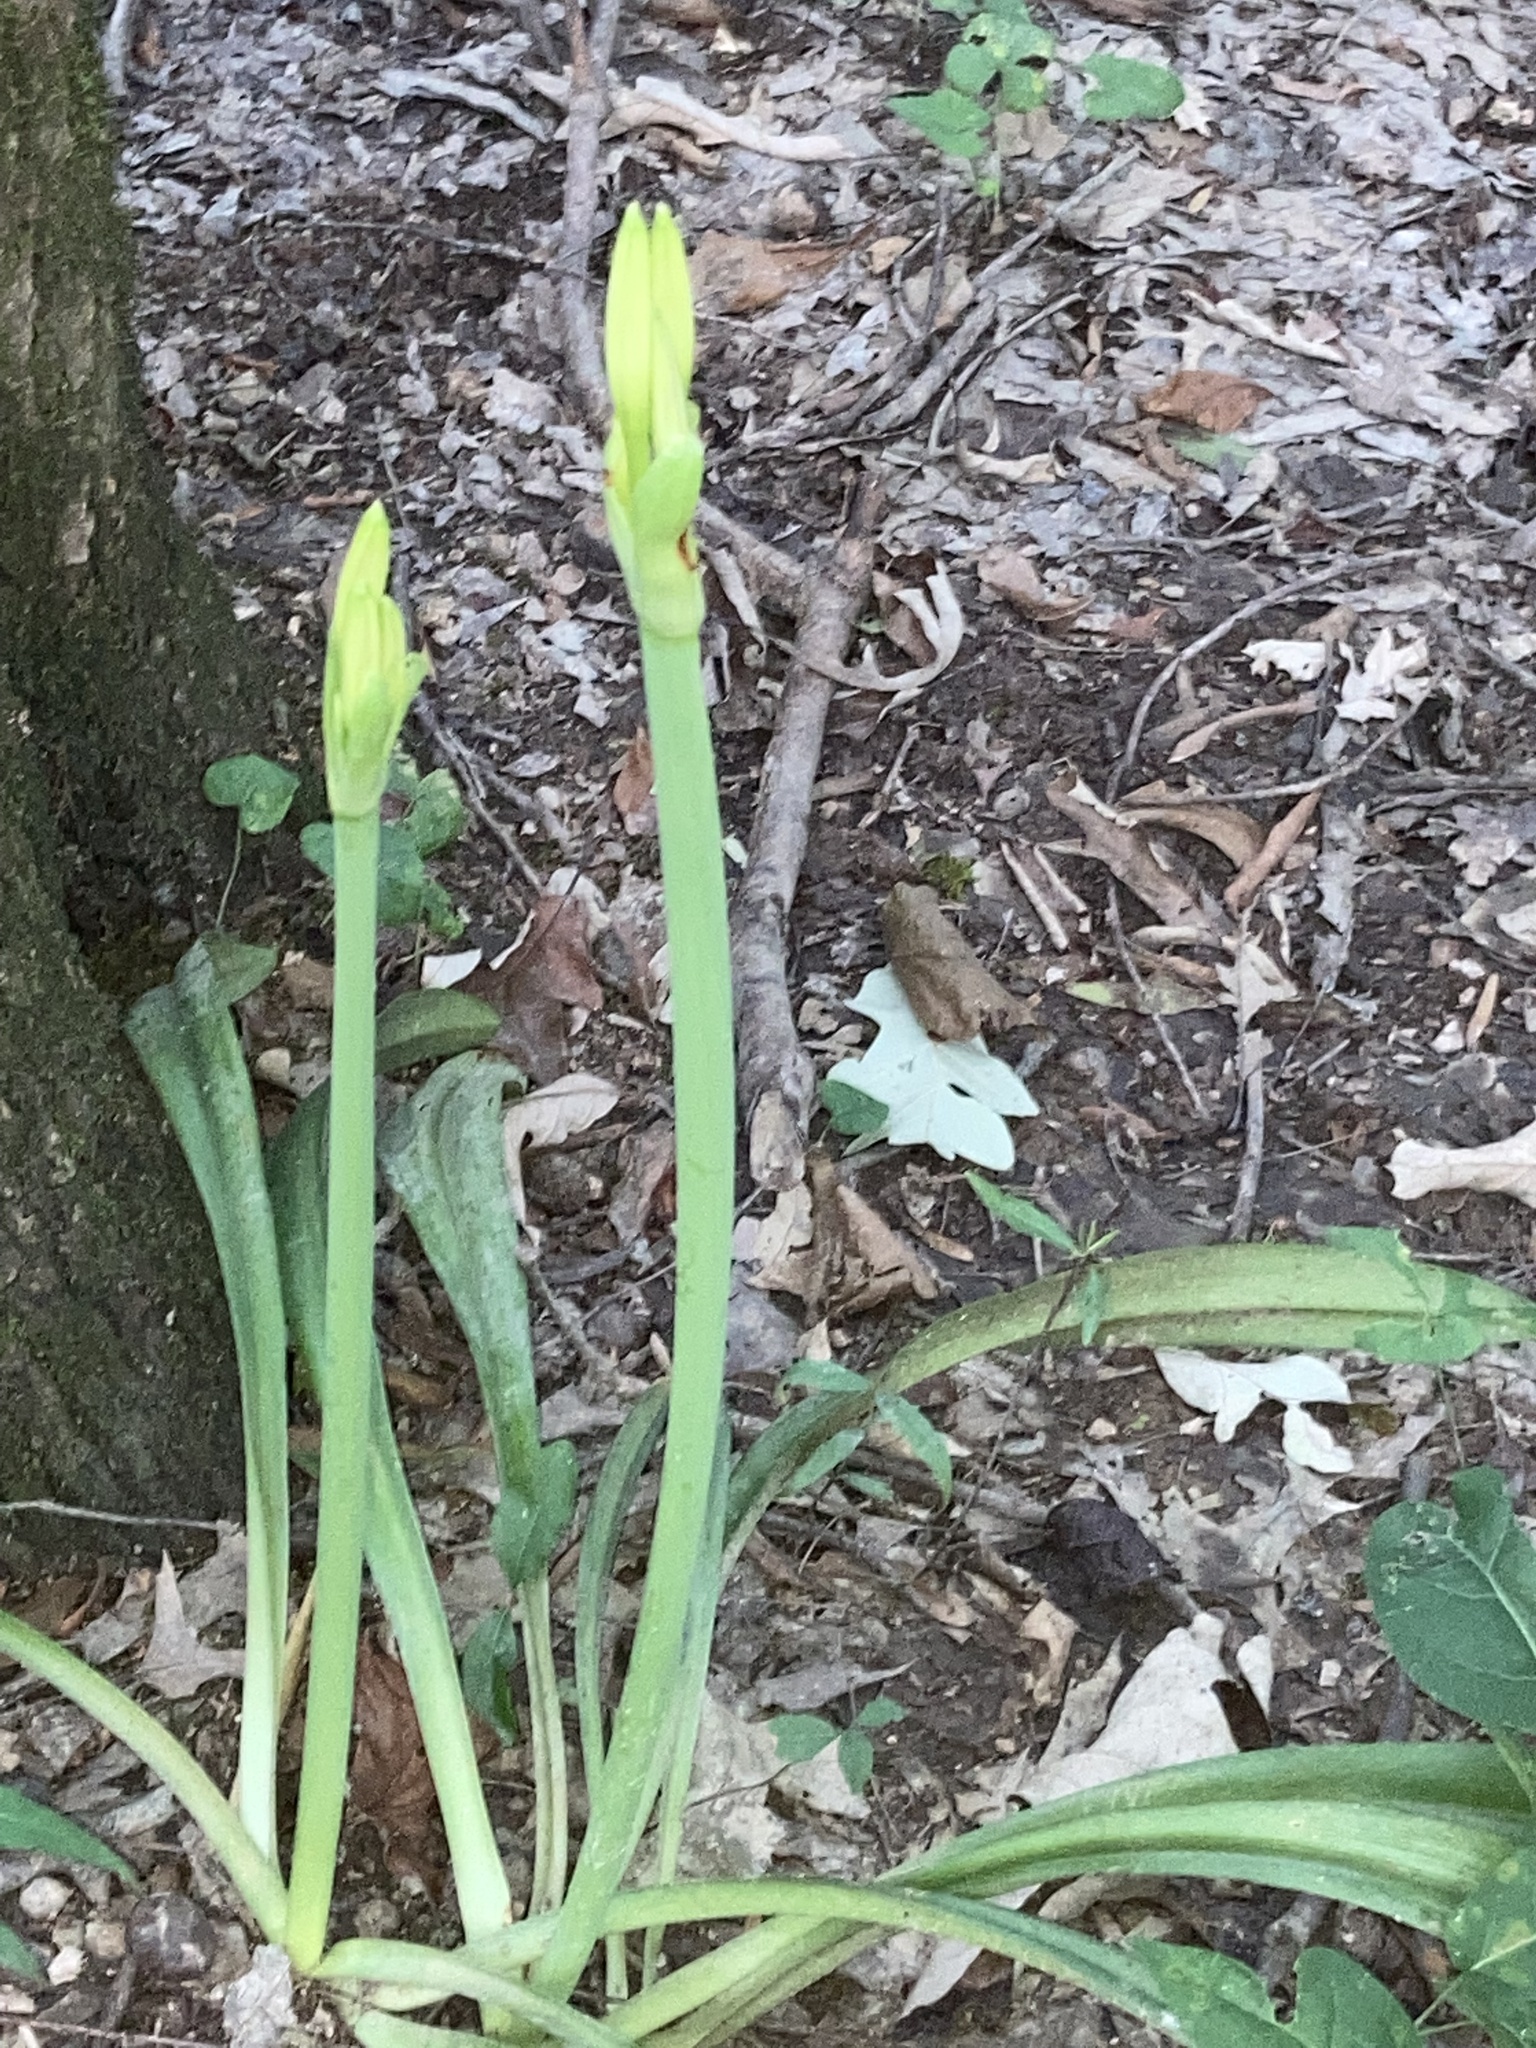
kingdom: Plantae
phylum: Tracheophyta
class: Liliopsida
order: Asparagales
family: Amaryllidaceae
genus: Hymenocallis
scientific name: Hymenocallis occidentalis
